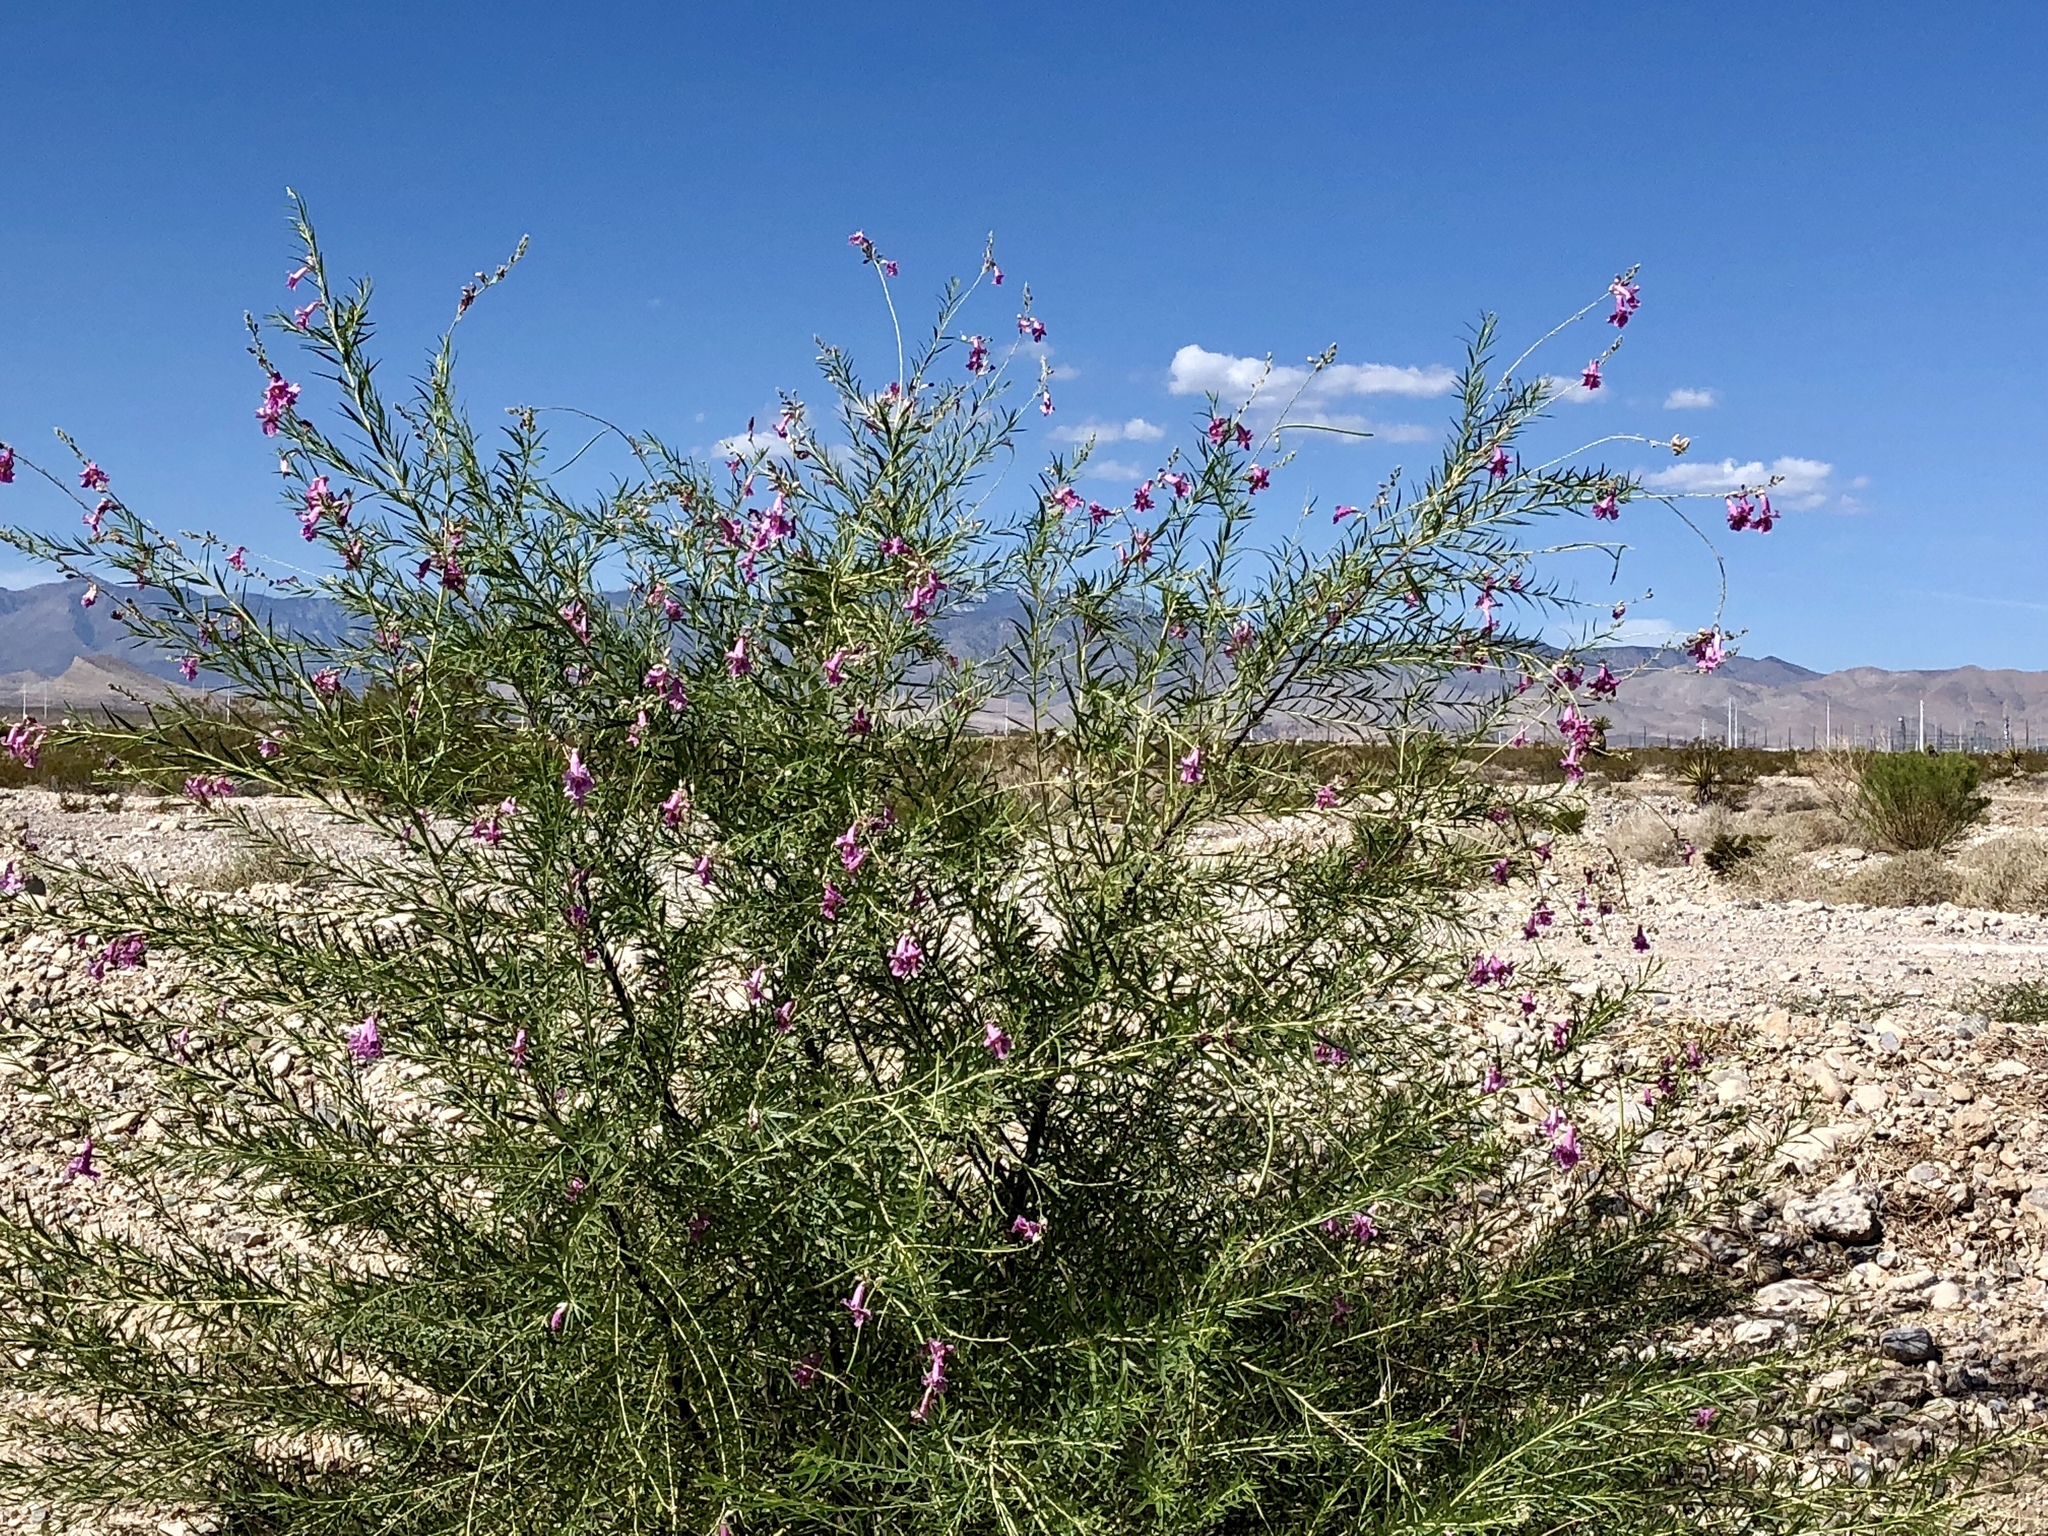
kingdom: Plantae
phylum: Tracheophyta
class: Magnoliopsida
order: Lamiales
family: Bignoniaceae
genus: Chilopsis
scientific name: Chilopsis linearis
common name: Desert-willow
